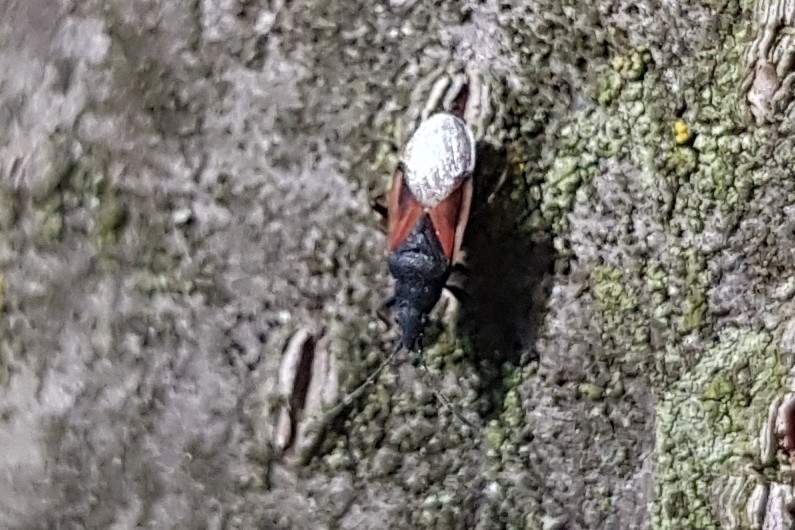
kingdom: Animalia
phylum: Arthropoda
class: Insecta
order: Hemiptera
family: Oxycarenidae
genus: Oxycarenus
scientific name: Oxycarenus lavaterae
